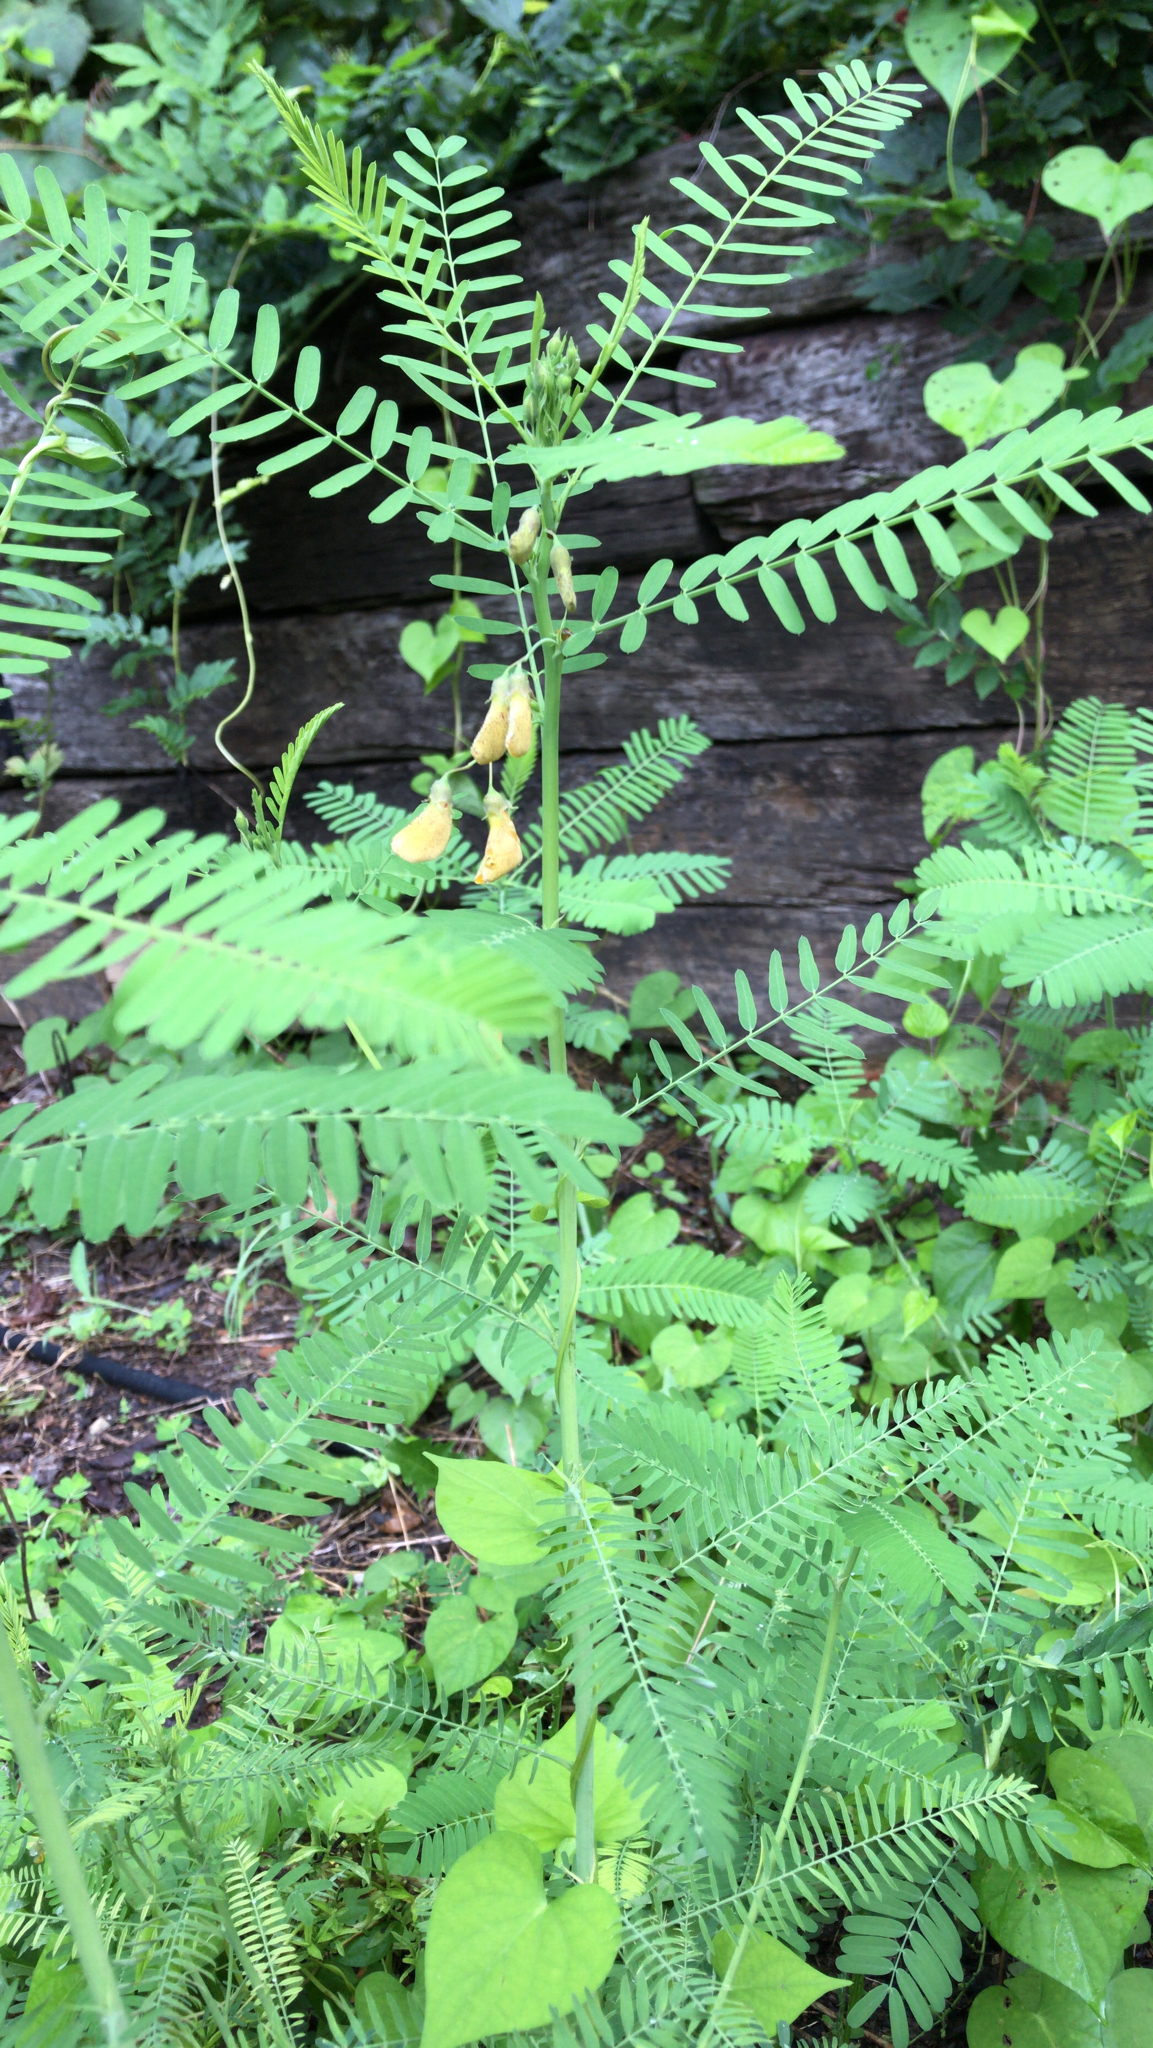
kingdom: Plantae
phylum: Tracheophyta
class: Magnoliopsida
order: Fabales
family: Fabaceae
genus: Sesbania
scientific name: Sesbania herbacea
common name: Bigpod sesbania
